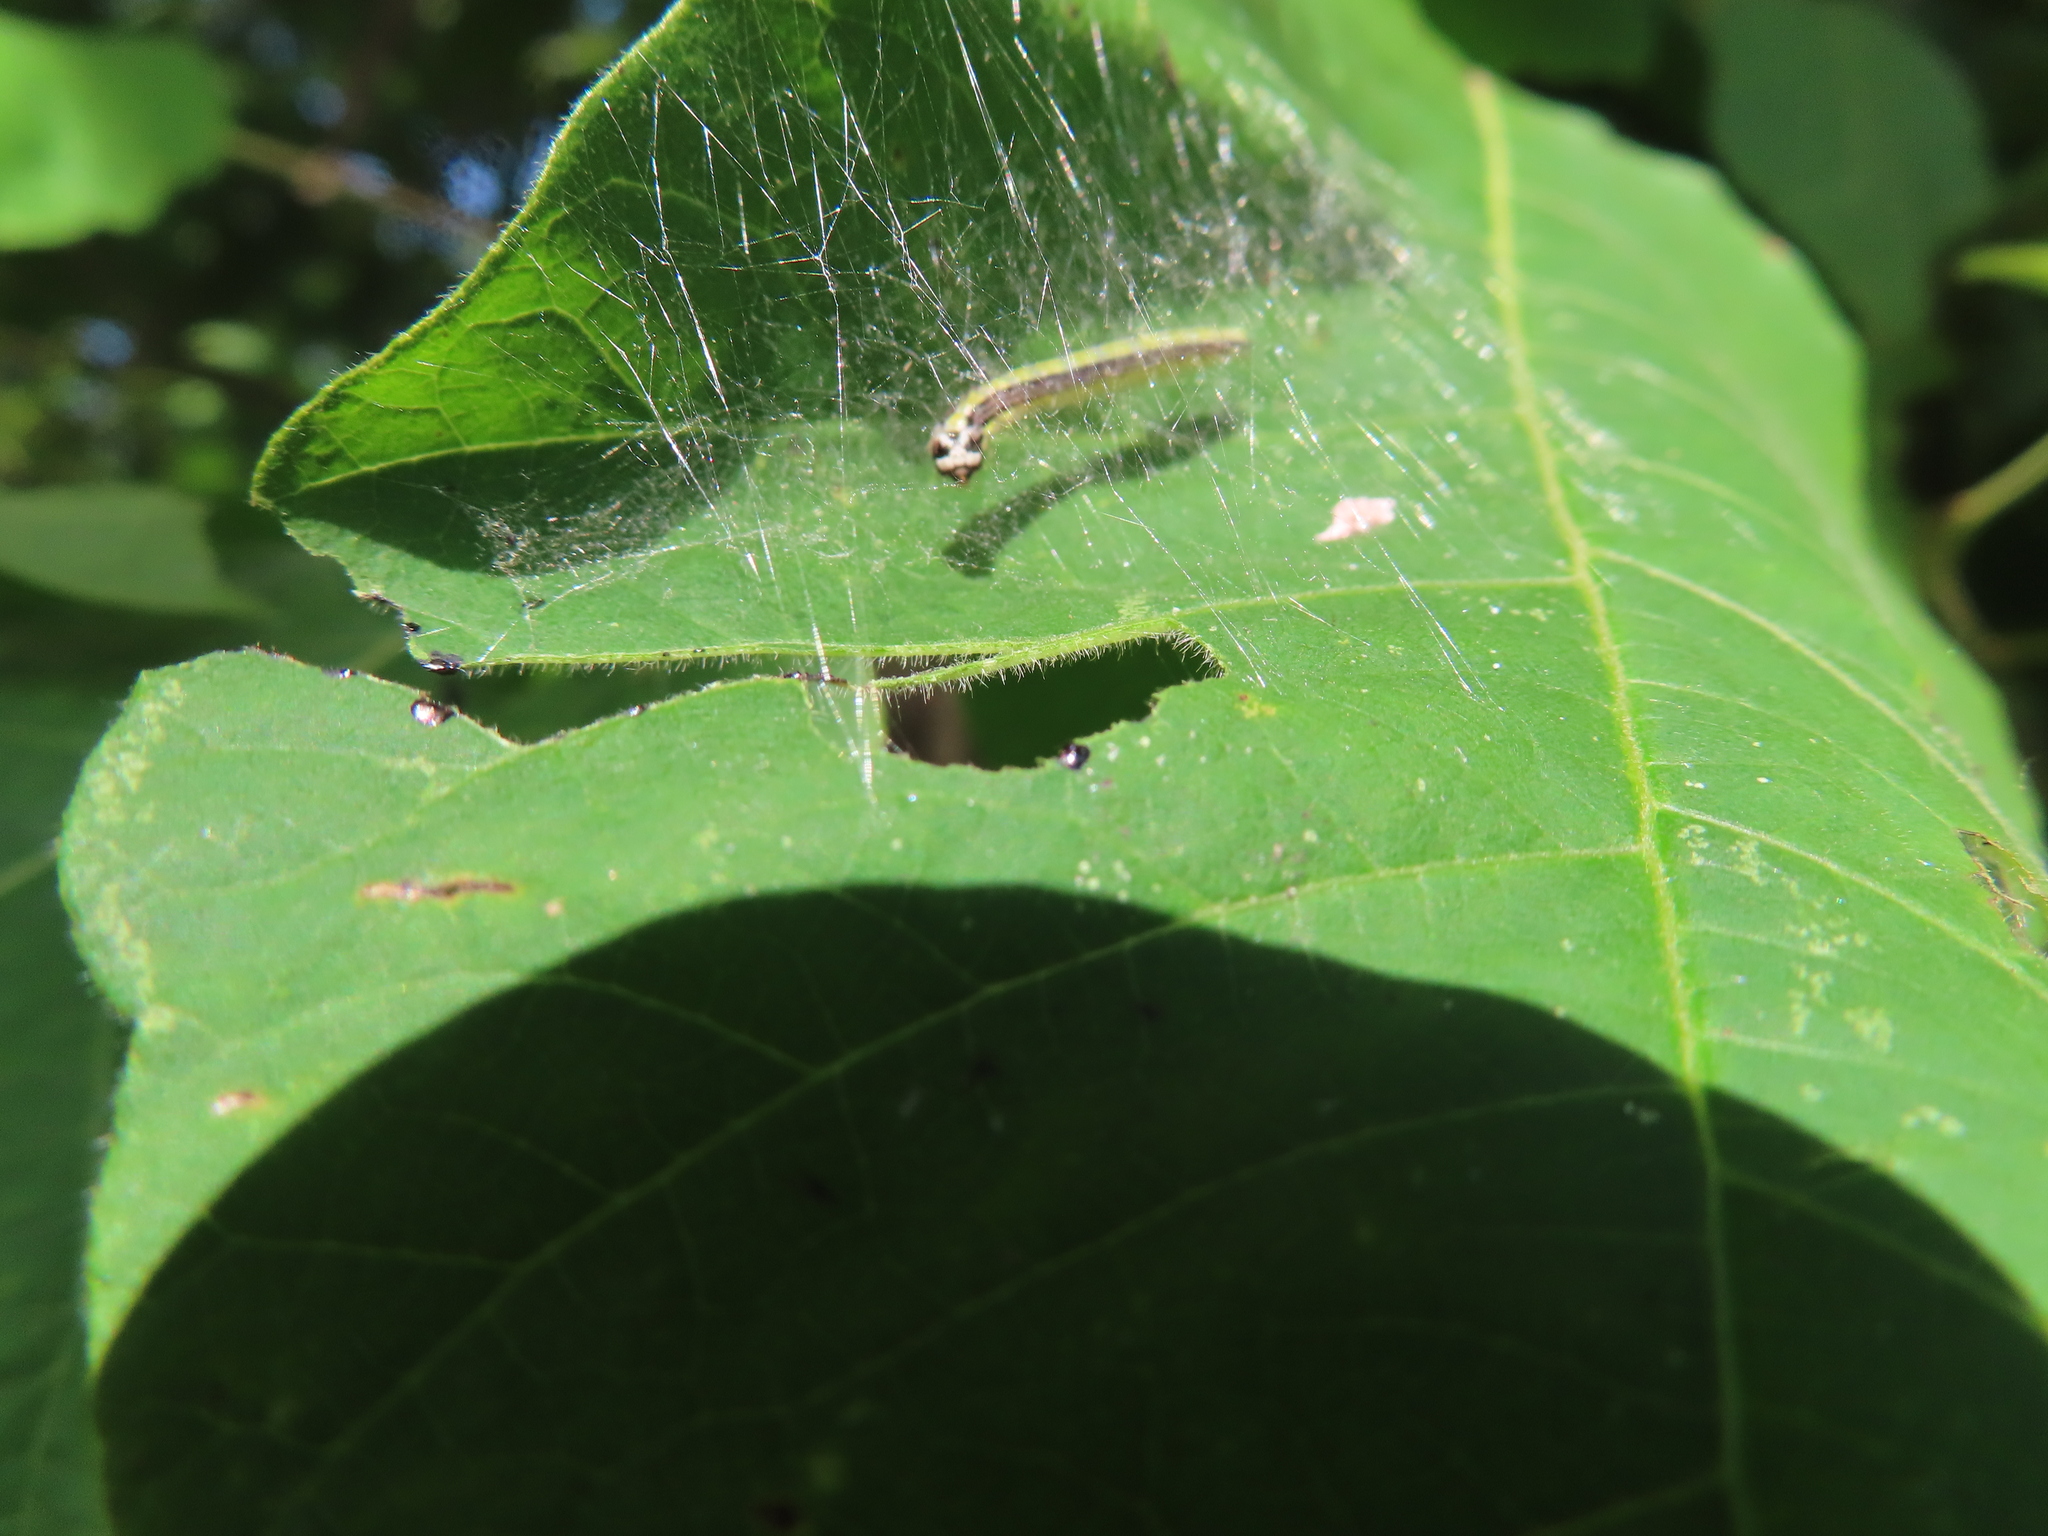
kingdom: Animalia
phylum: Arthropoda
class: Insecta
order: Lepidoptera
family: Pyralidae
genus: Epipaschia
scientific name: Epipaschia superatalis
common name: Dimorphic macalla moth
